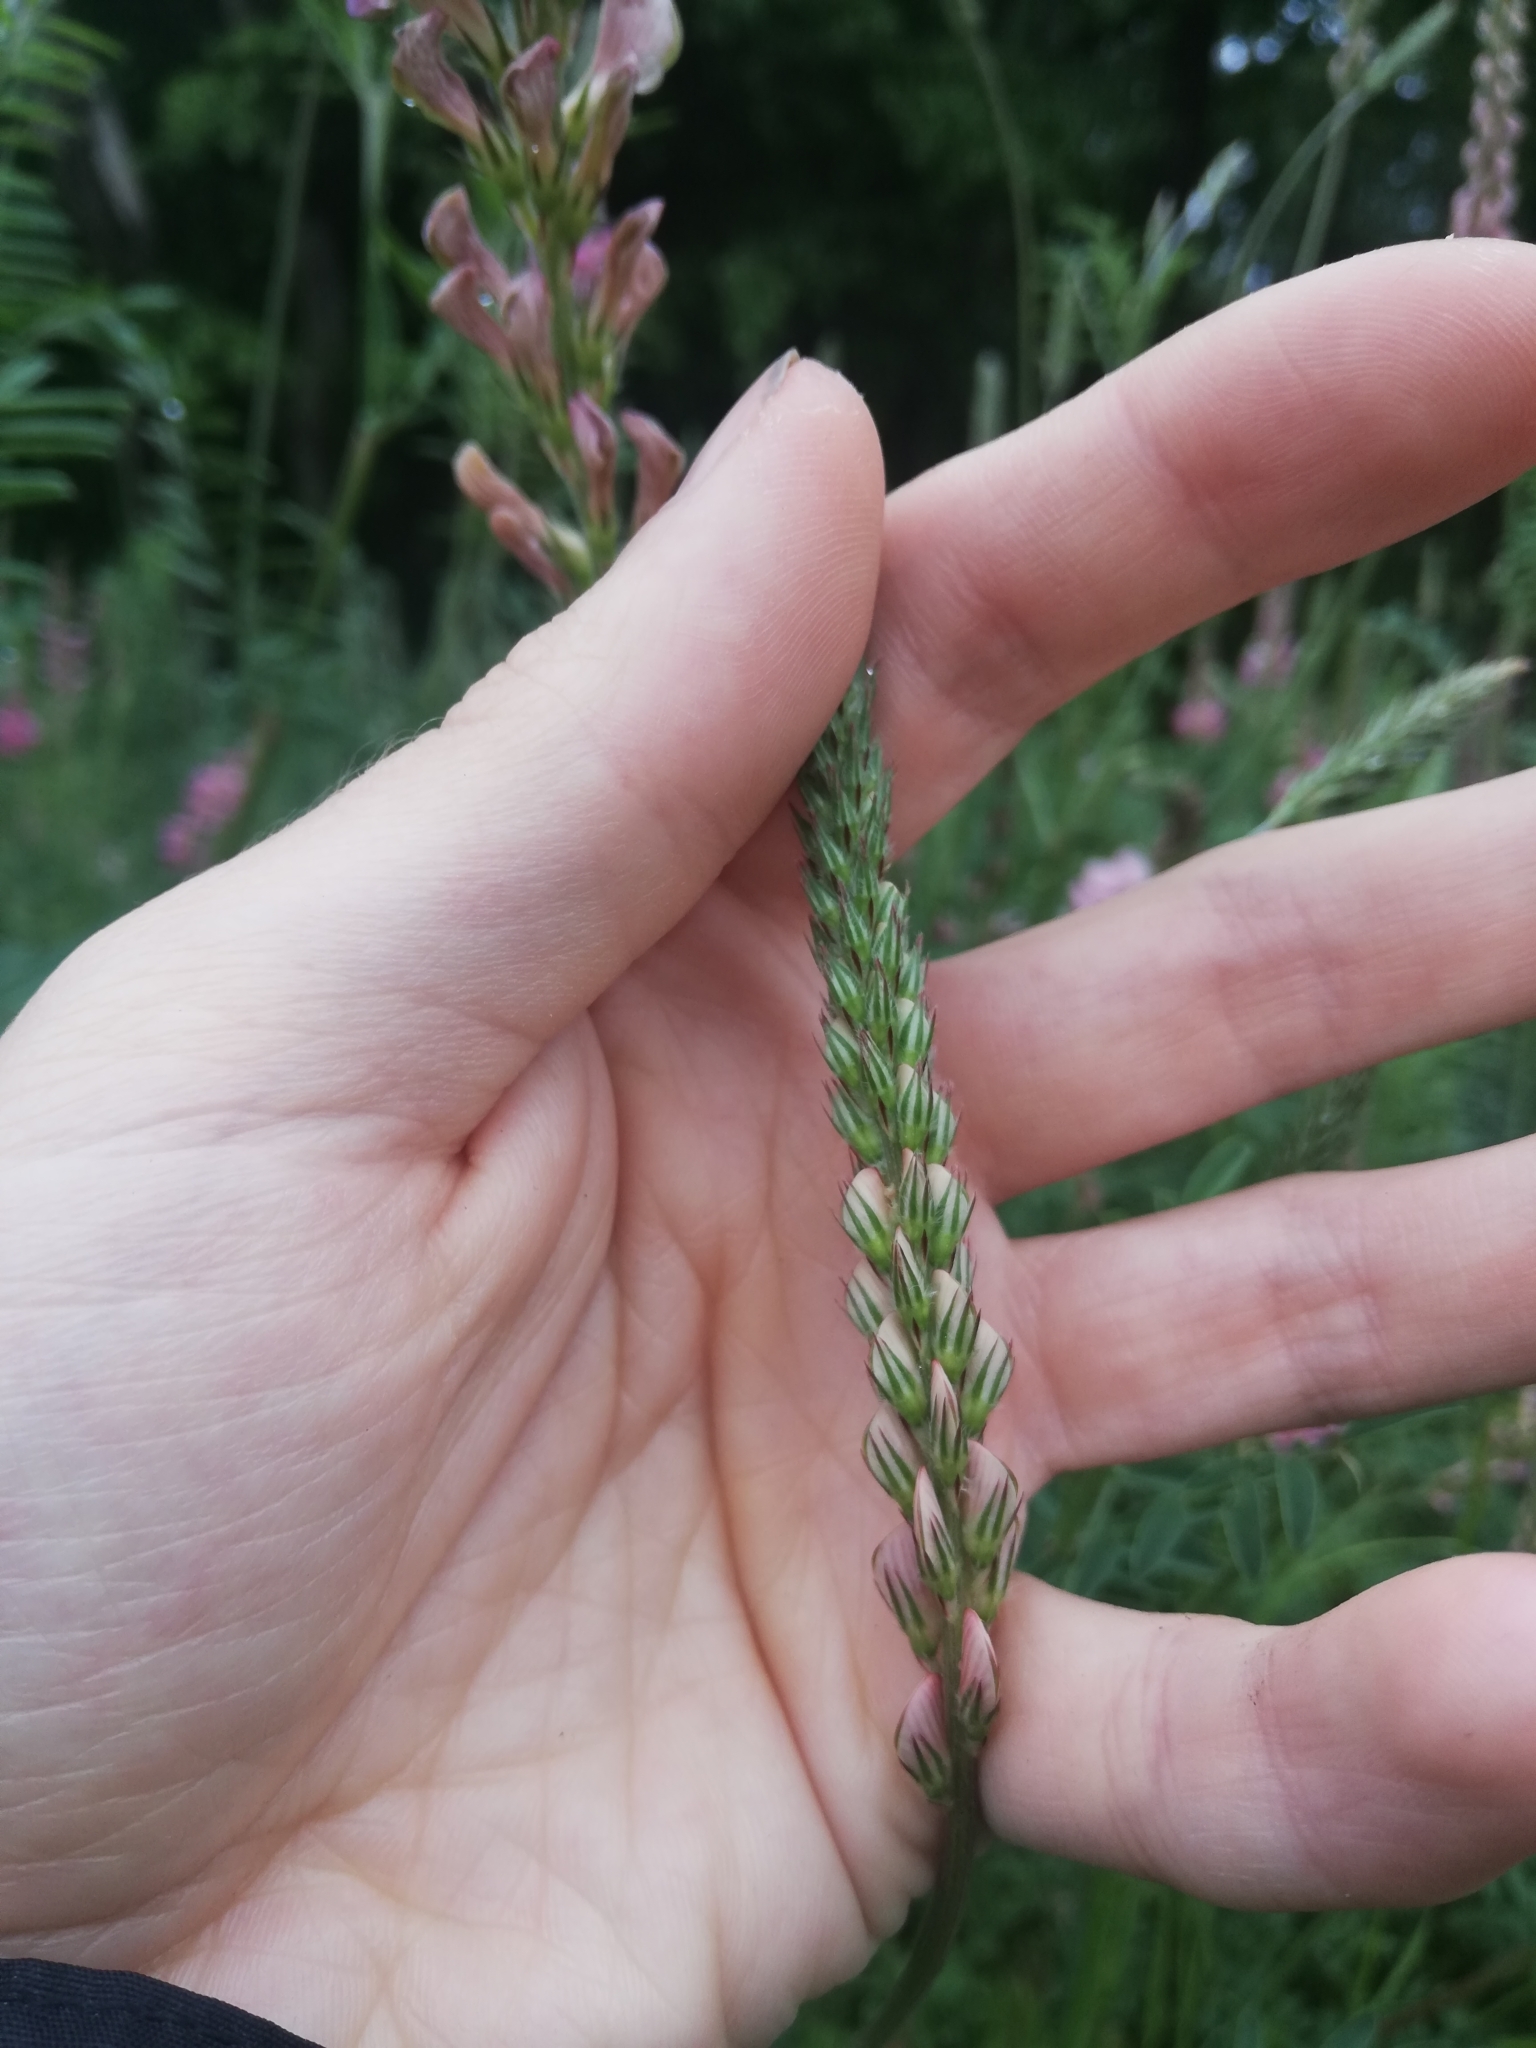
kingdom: Plantae
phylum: Tracheophyta
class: Magnoliopsida
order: Fabales
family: Fabaceae
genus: Onobrychis
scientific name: Onobrychis viciifolia
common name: Sainfoin
